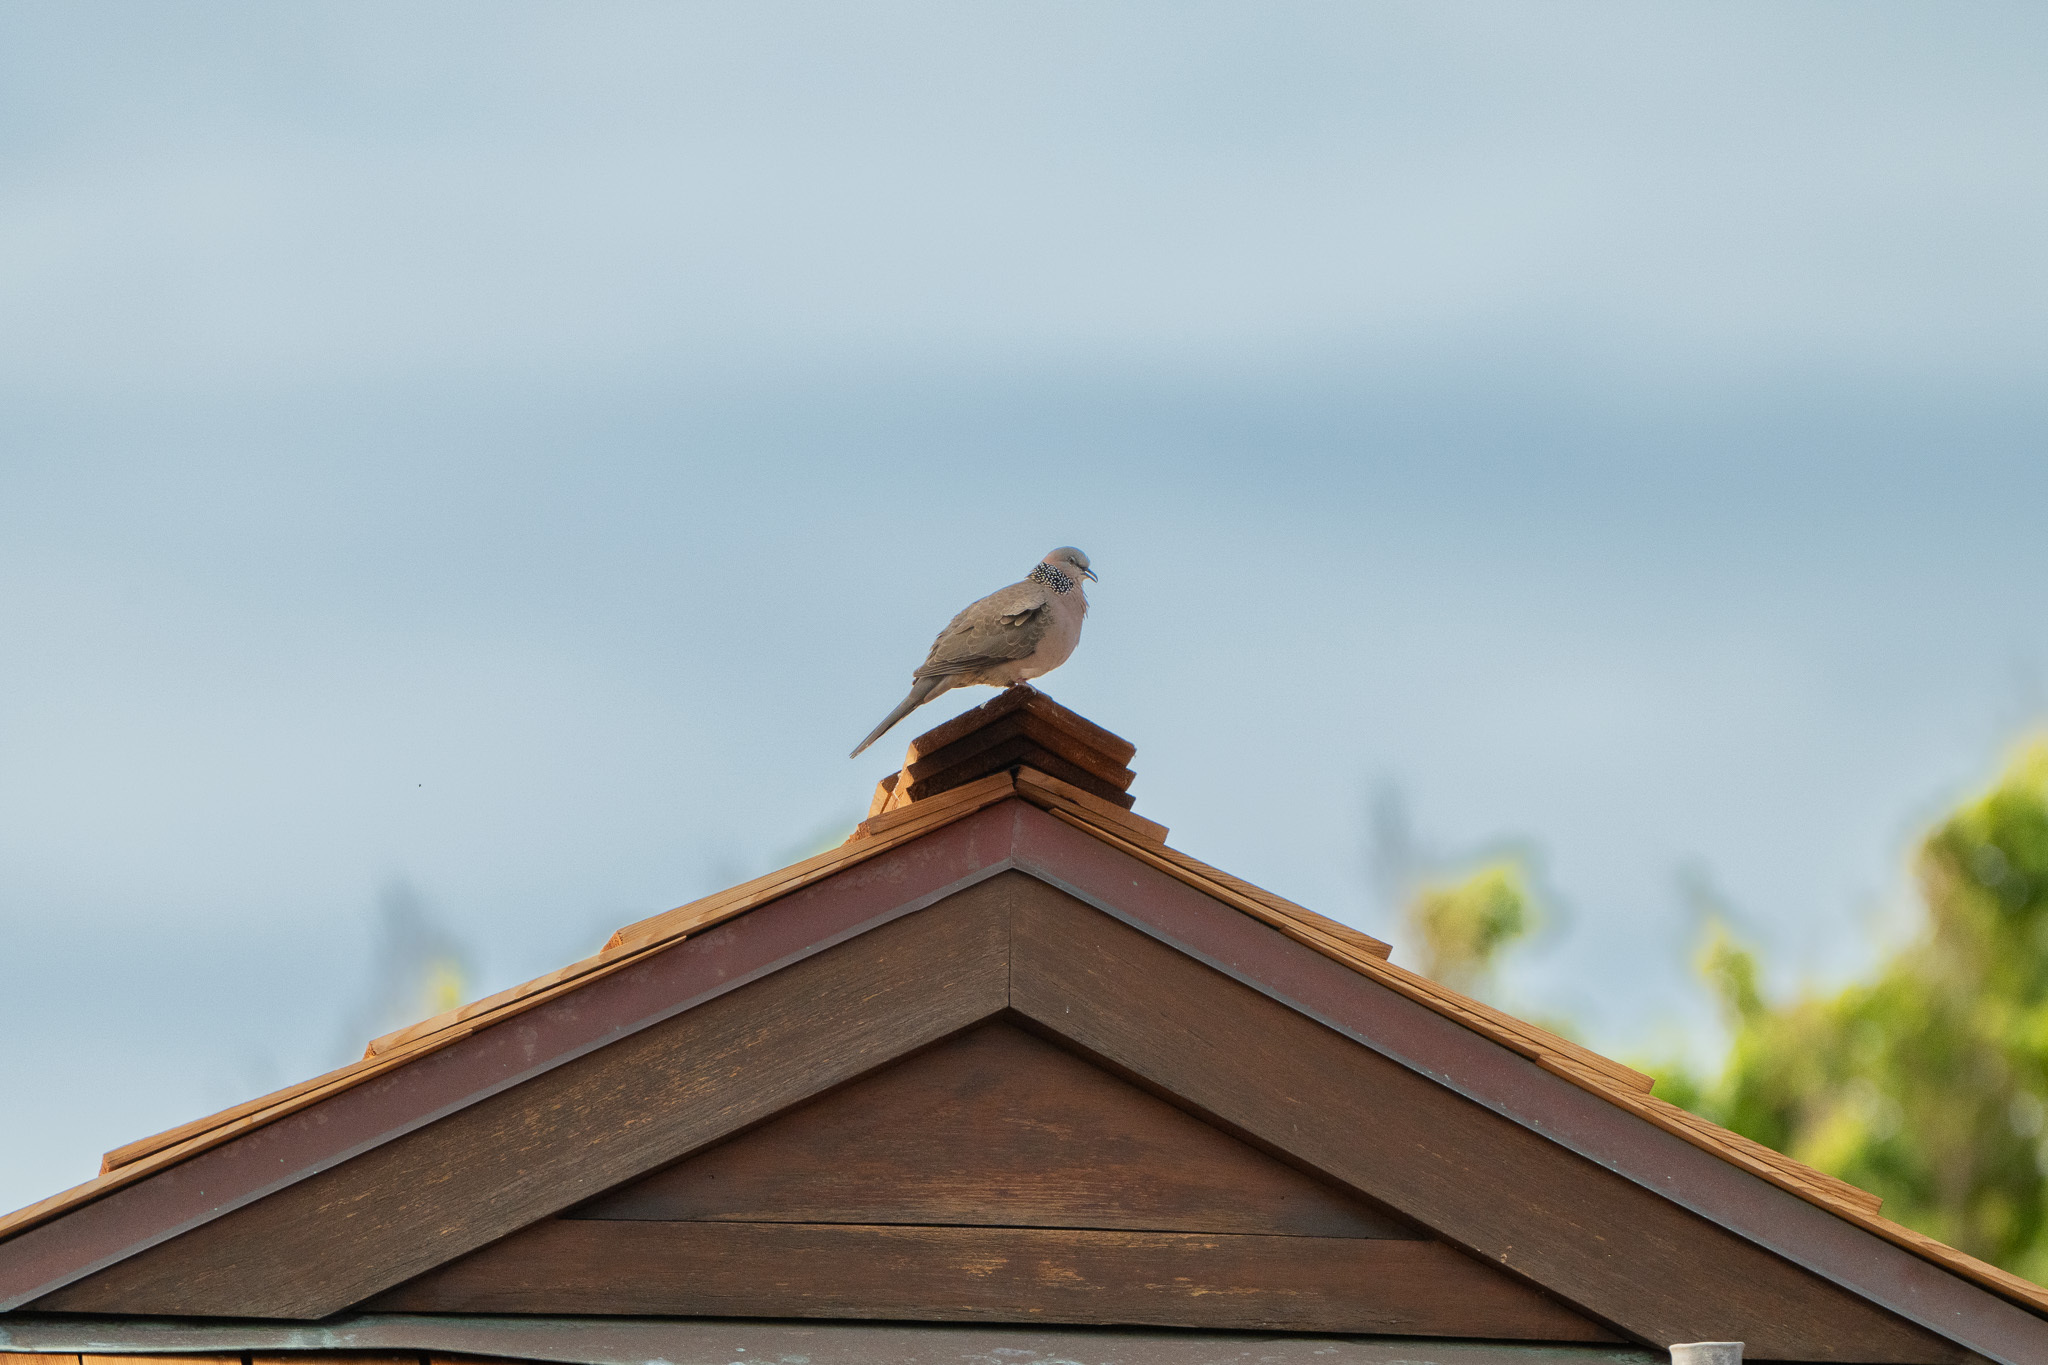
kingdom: Animalia
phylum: Chordata
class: Aves
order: Columbiformes
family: Columbidae
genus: Spilopelia
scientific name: Spilopelia chinensis
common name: Spotted dove
